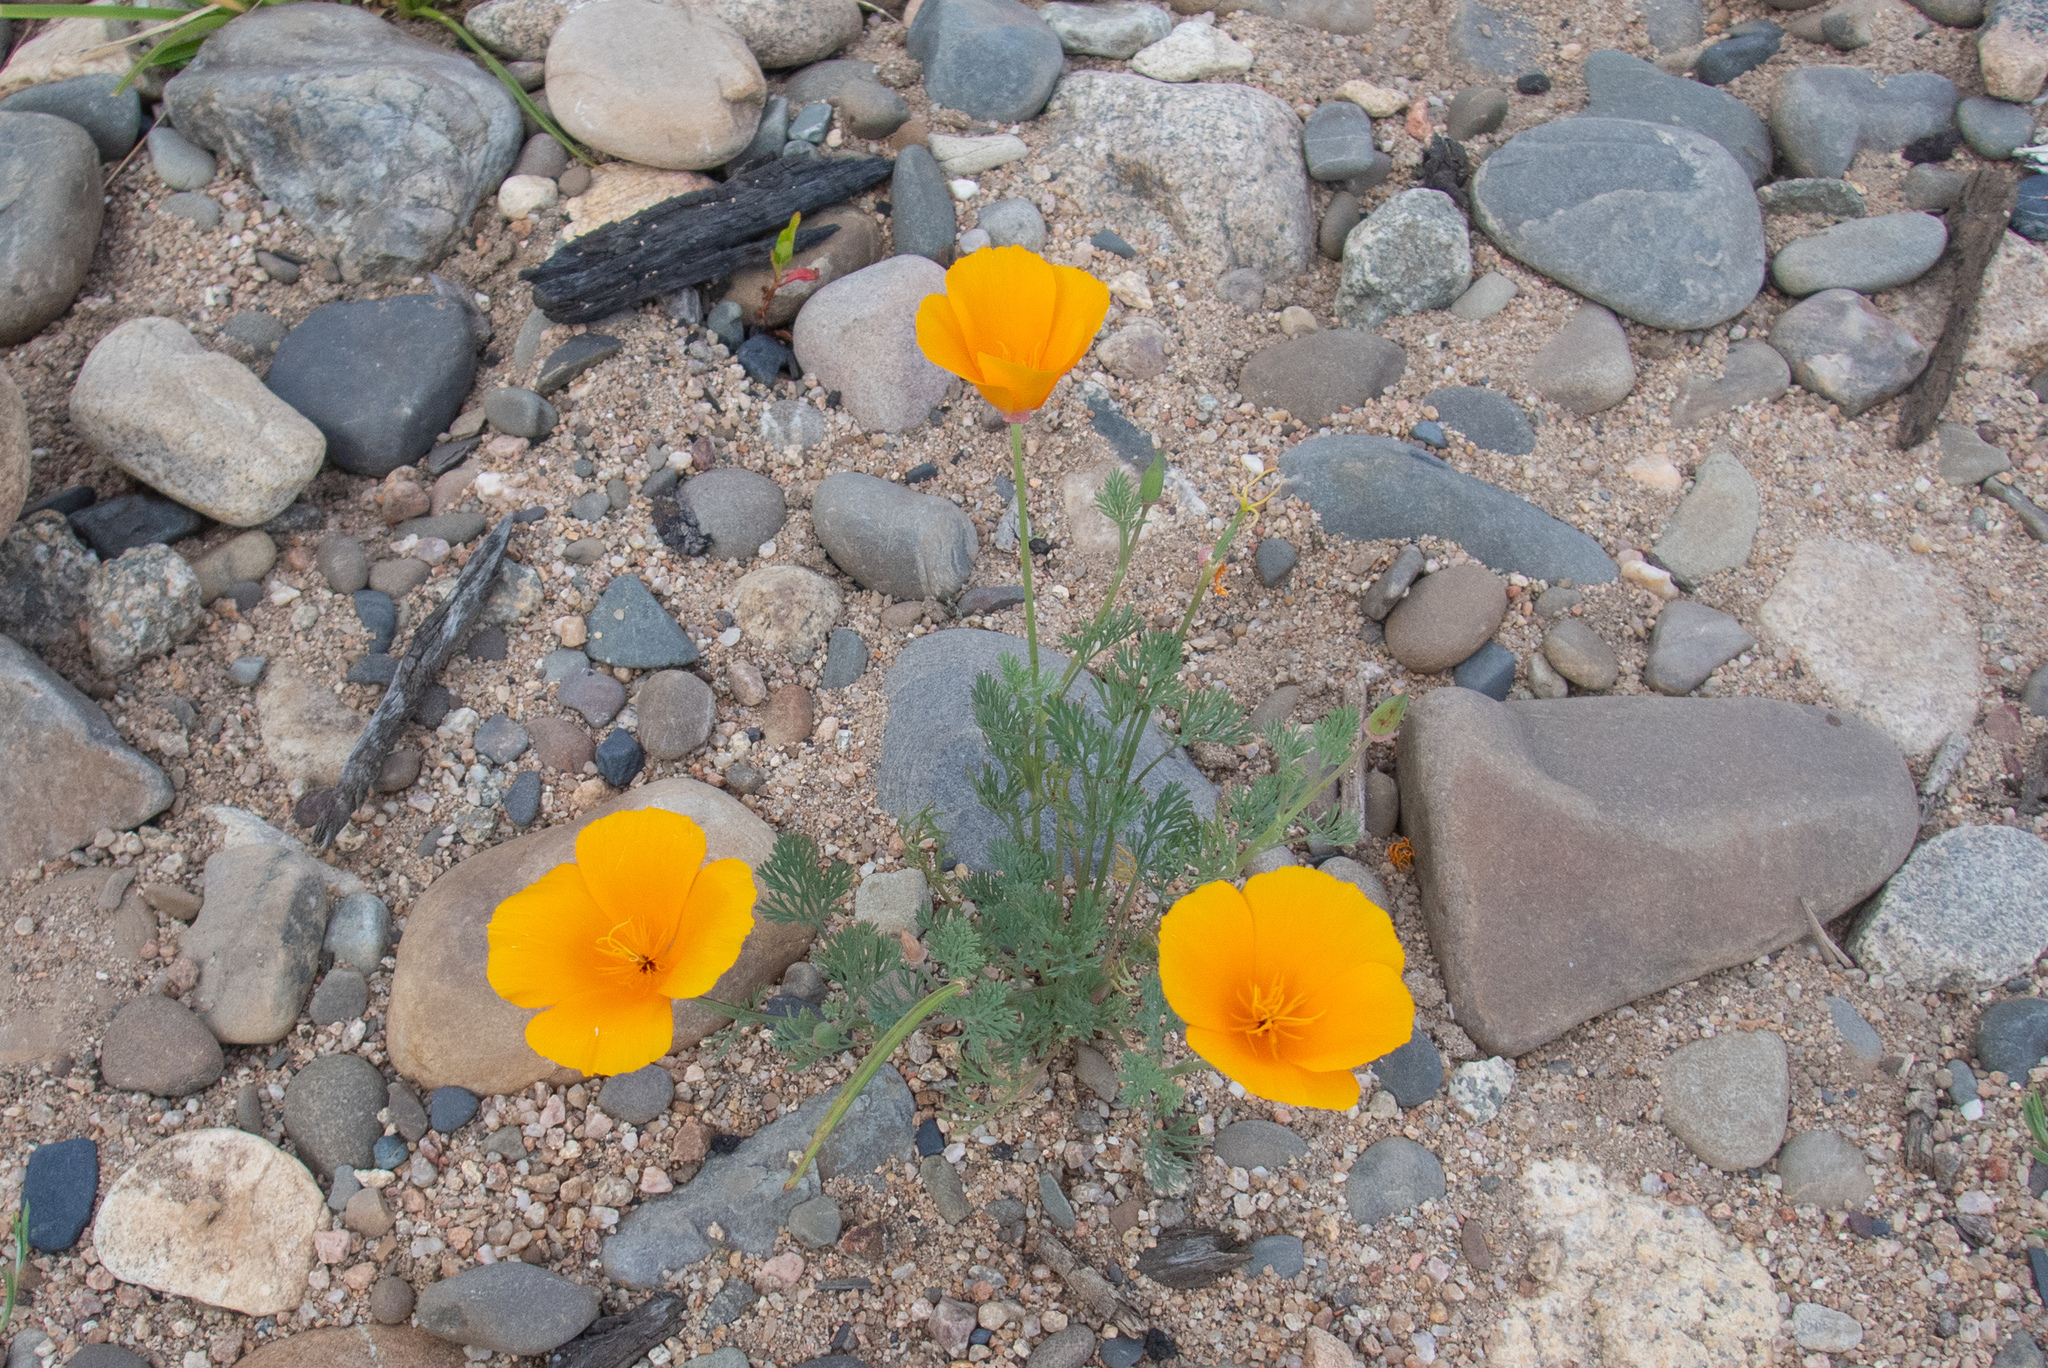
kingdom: Plantae
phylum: Tracheophyta
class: Magnoliopsida
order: Ranunculales
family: Papaveraceae
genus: Eschscholzia
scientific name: Eschscholzia californica
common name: California poppy
